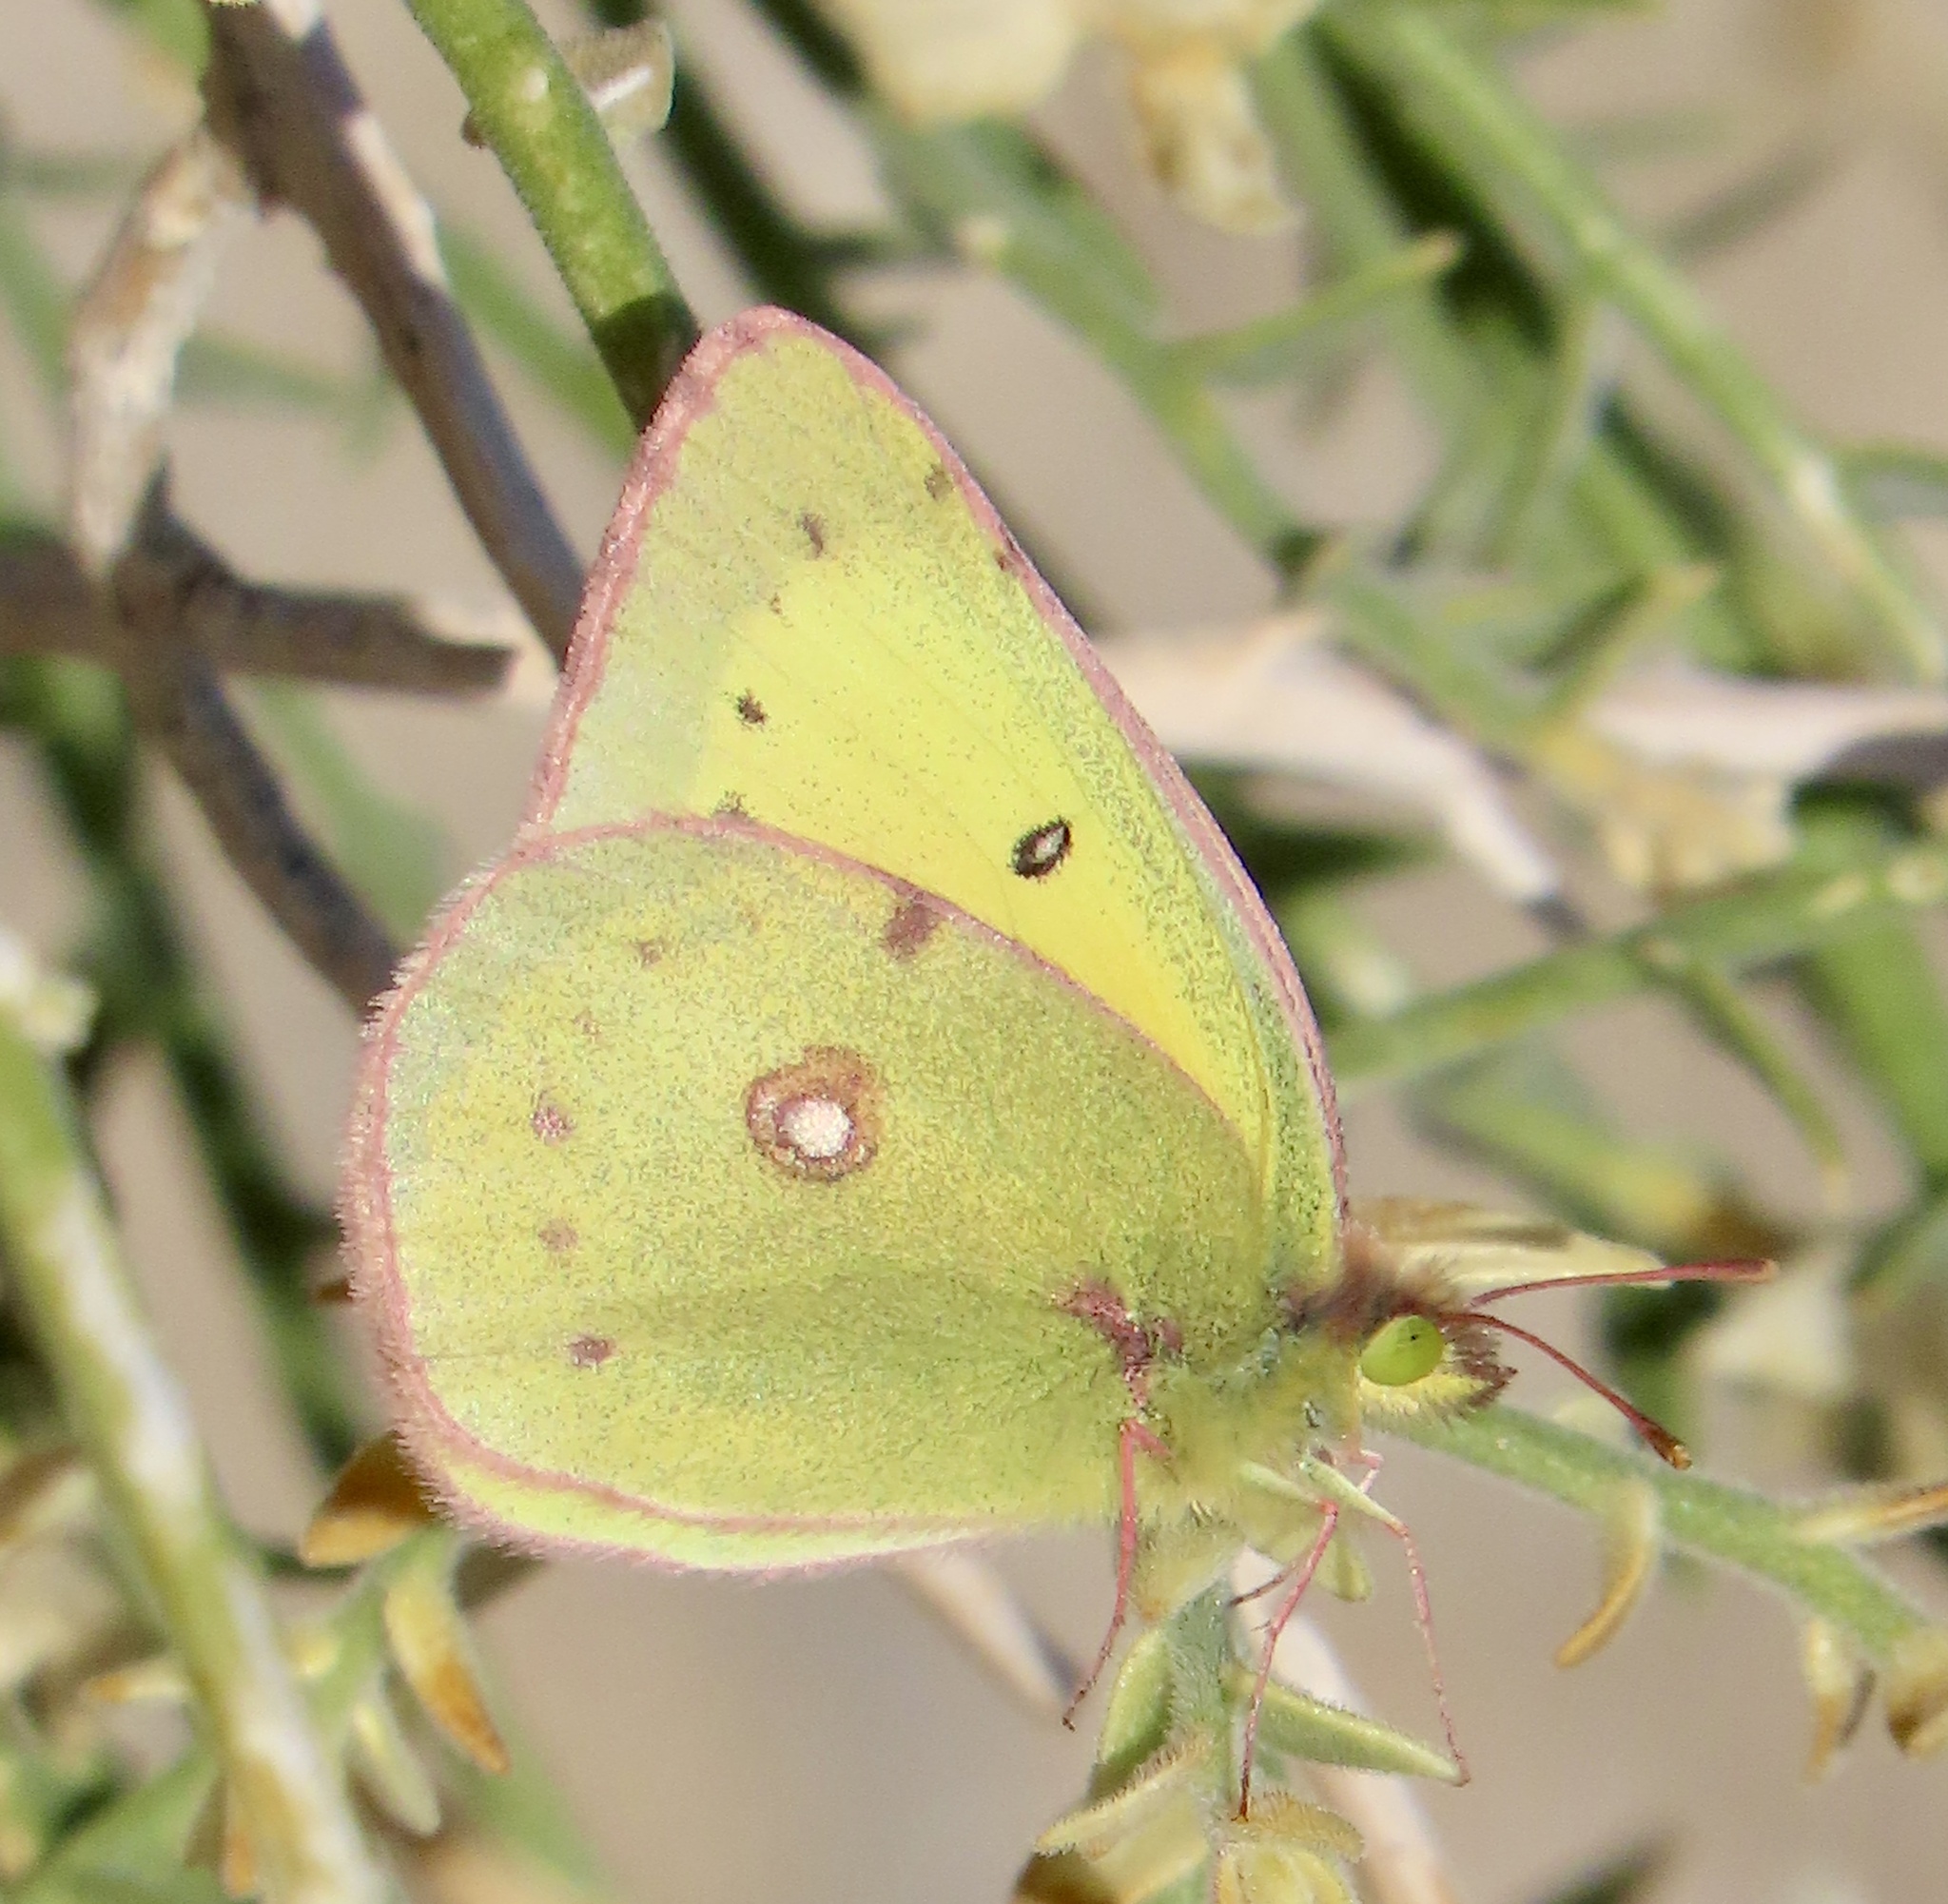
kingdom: Animalia
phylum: Arthropoda
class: Insecta
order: Lepidoptera
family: Pieridae
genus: Colias
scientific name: Colias eurytheme
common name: Alfalfa butterfly
